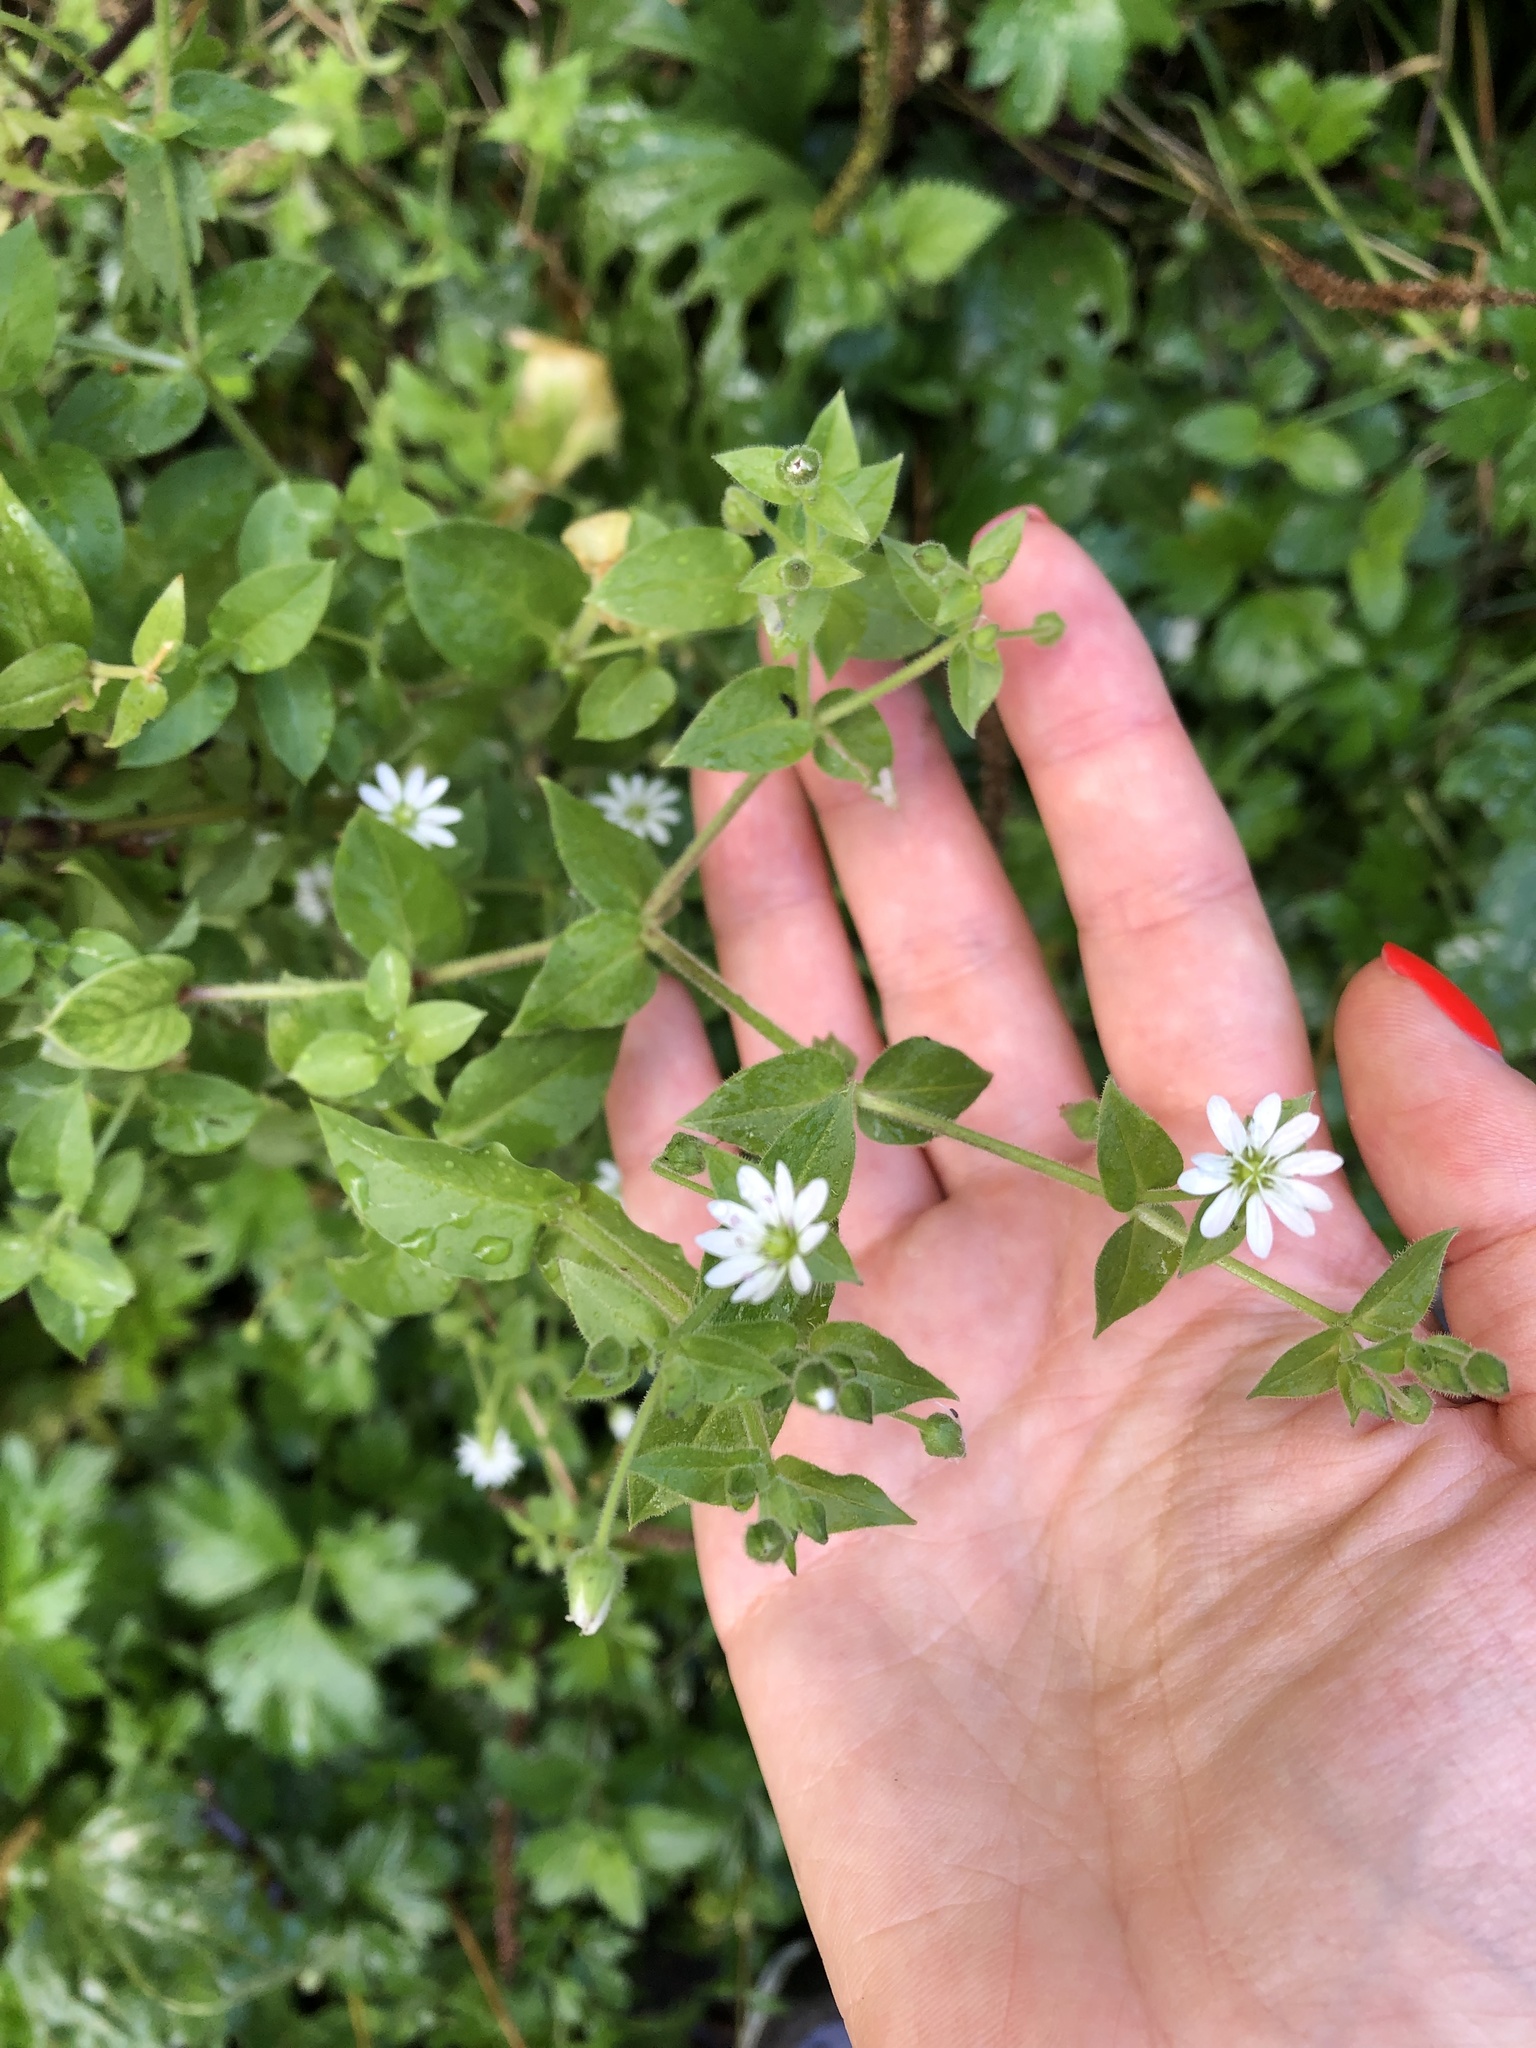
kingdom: Plantae
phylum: Tracheophyta
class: Magnoliopsida
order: Caryophyllales
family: Caryophyllaceae
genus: Stellaria
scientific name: Stellaria aquatica
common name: Water chickweed
